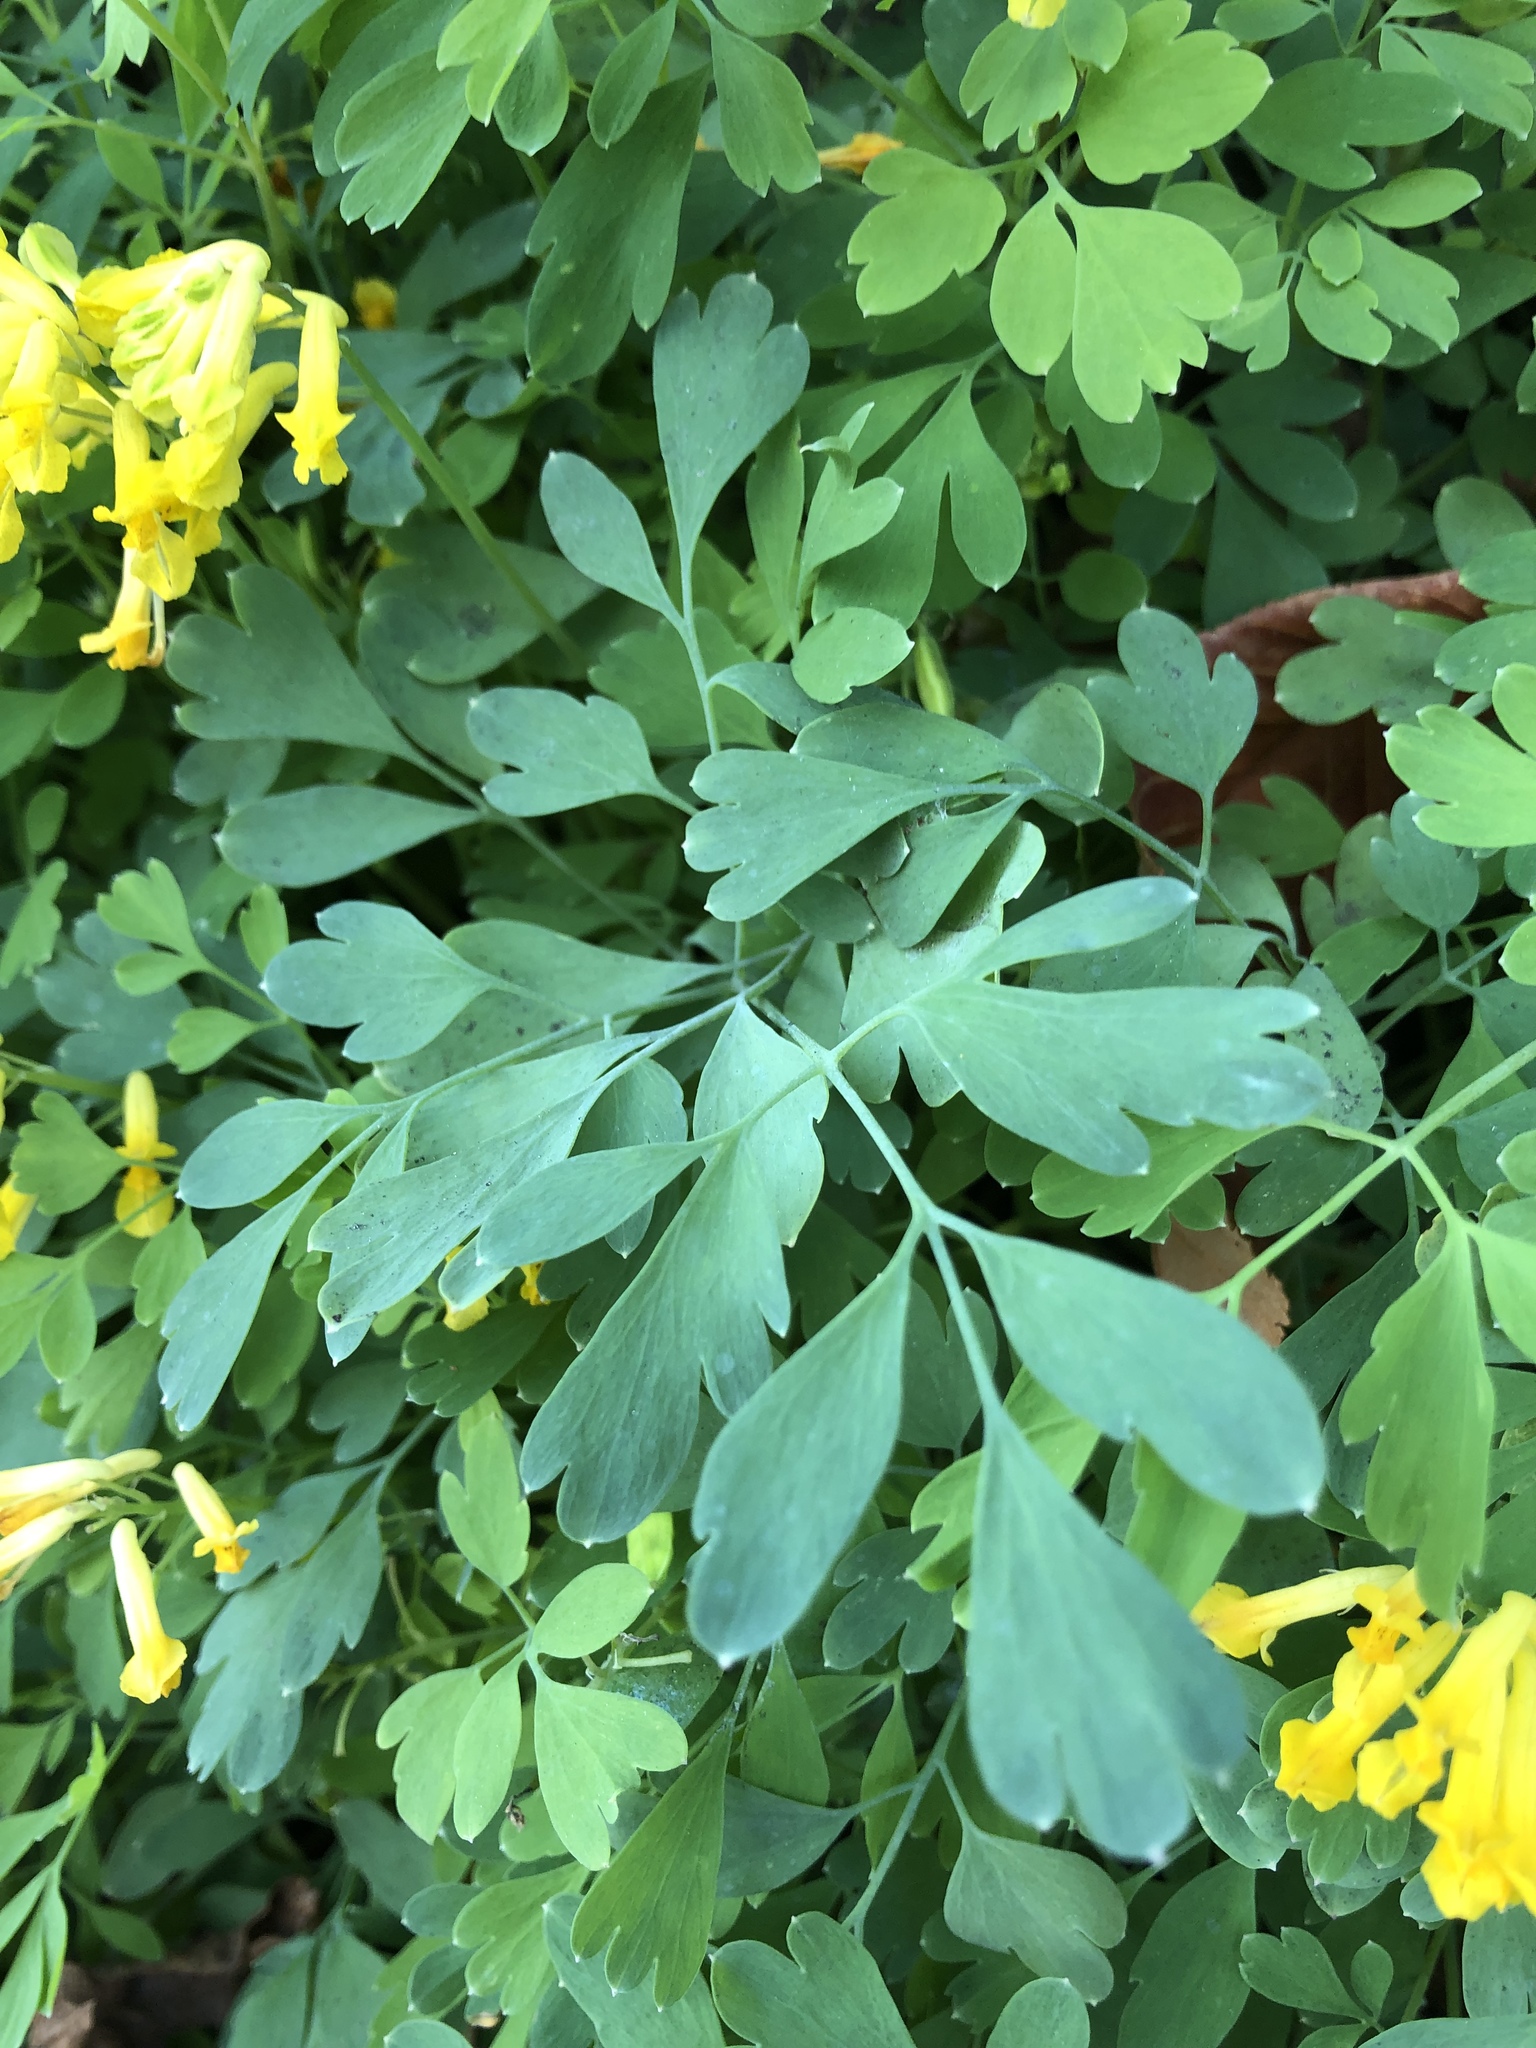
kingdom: Plantae
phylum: Tracheophyta
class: Magnoliopsida
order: Ranunculales
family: Papaveraceae
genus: Pseudofumaria
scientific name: Pseudofumaria lutea
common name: Yellow corydalis
